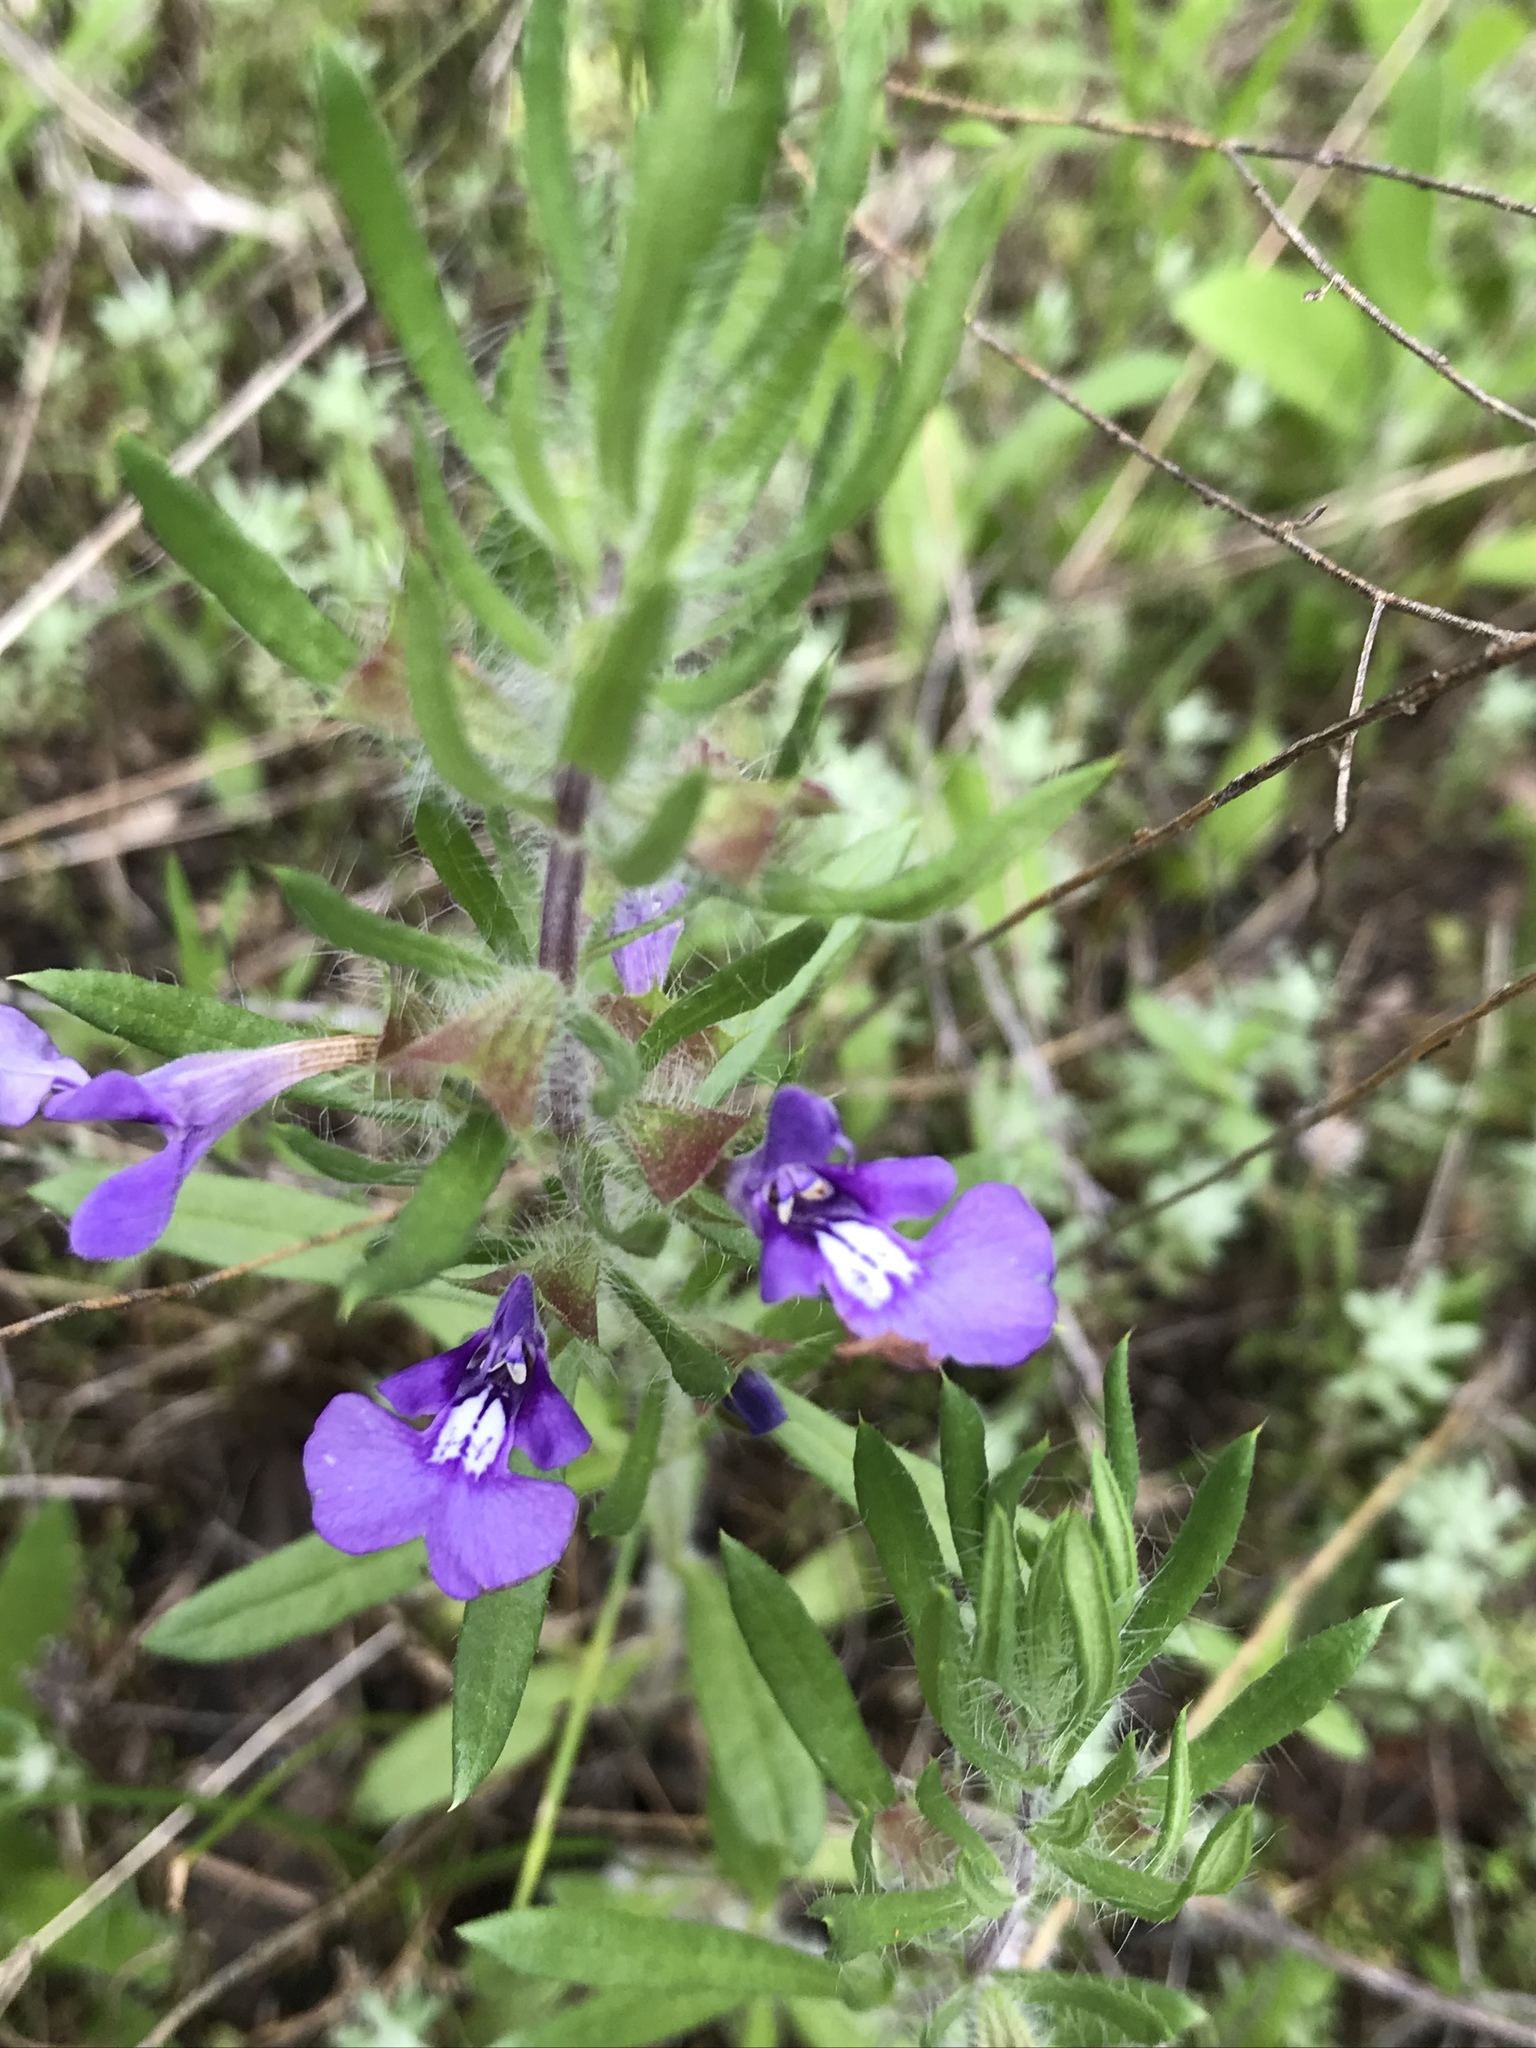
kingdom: Plantae
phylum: Tracheophyta
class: Magnoliopsida
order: Lamiales
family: Lamiaceae
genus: Salvia
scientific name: Salvia texana
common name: Texas sage
